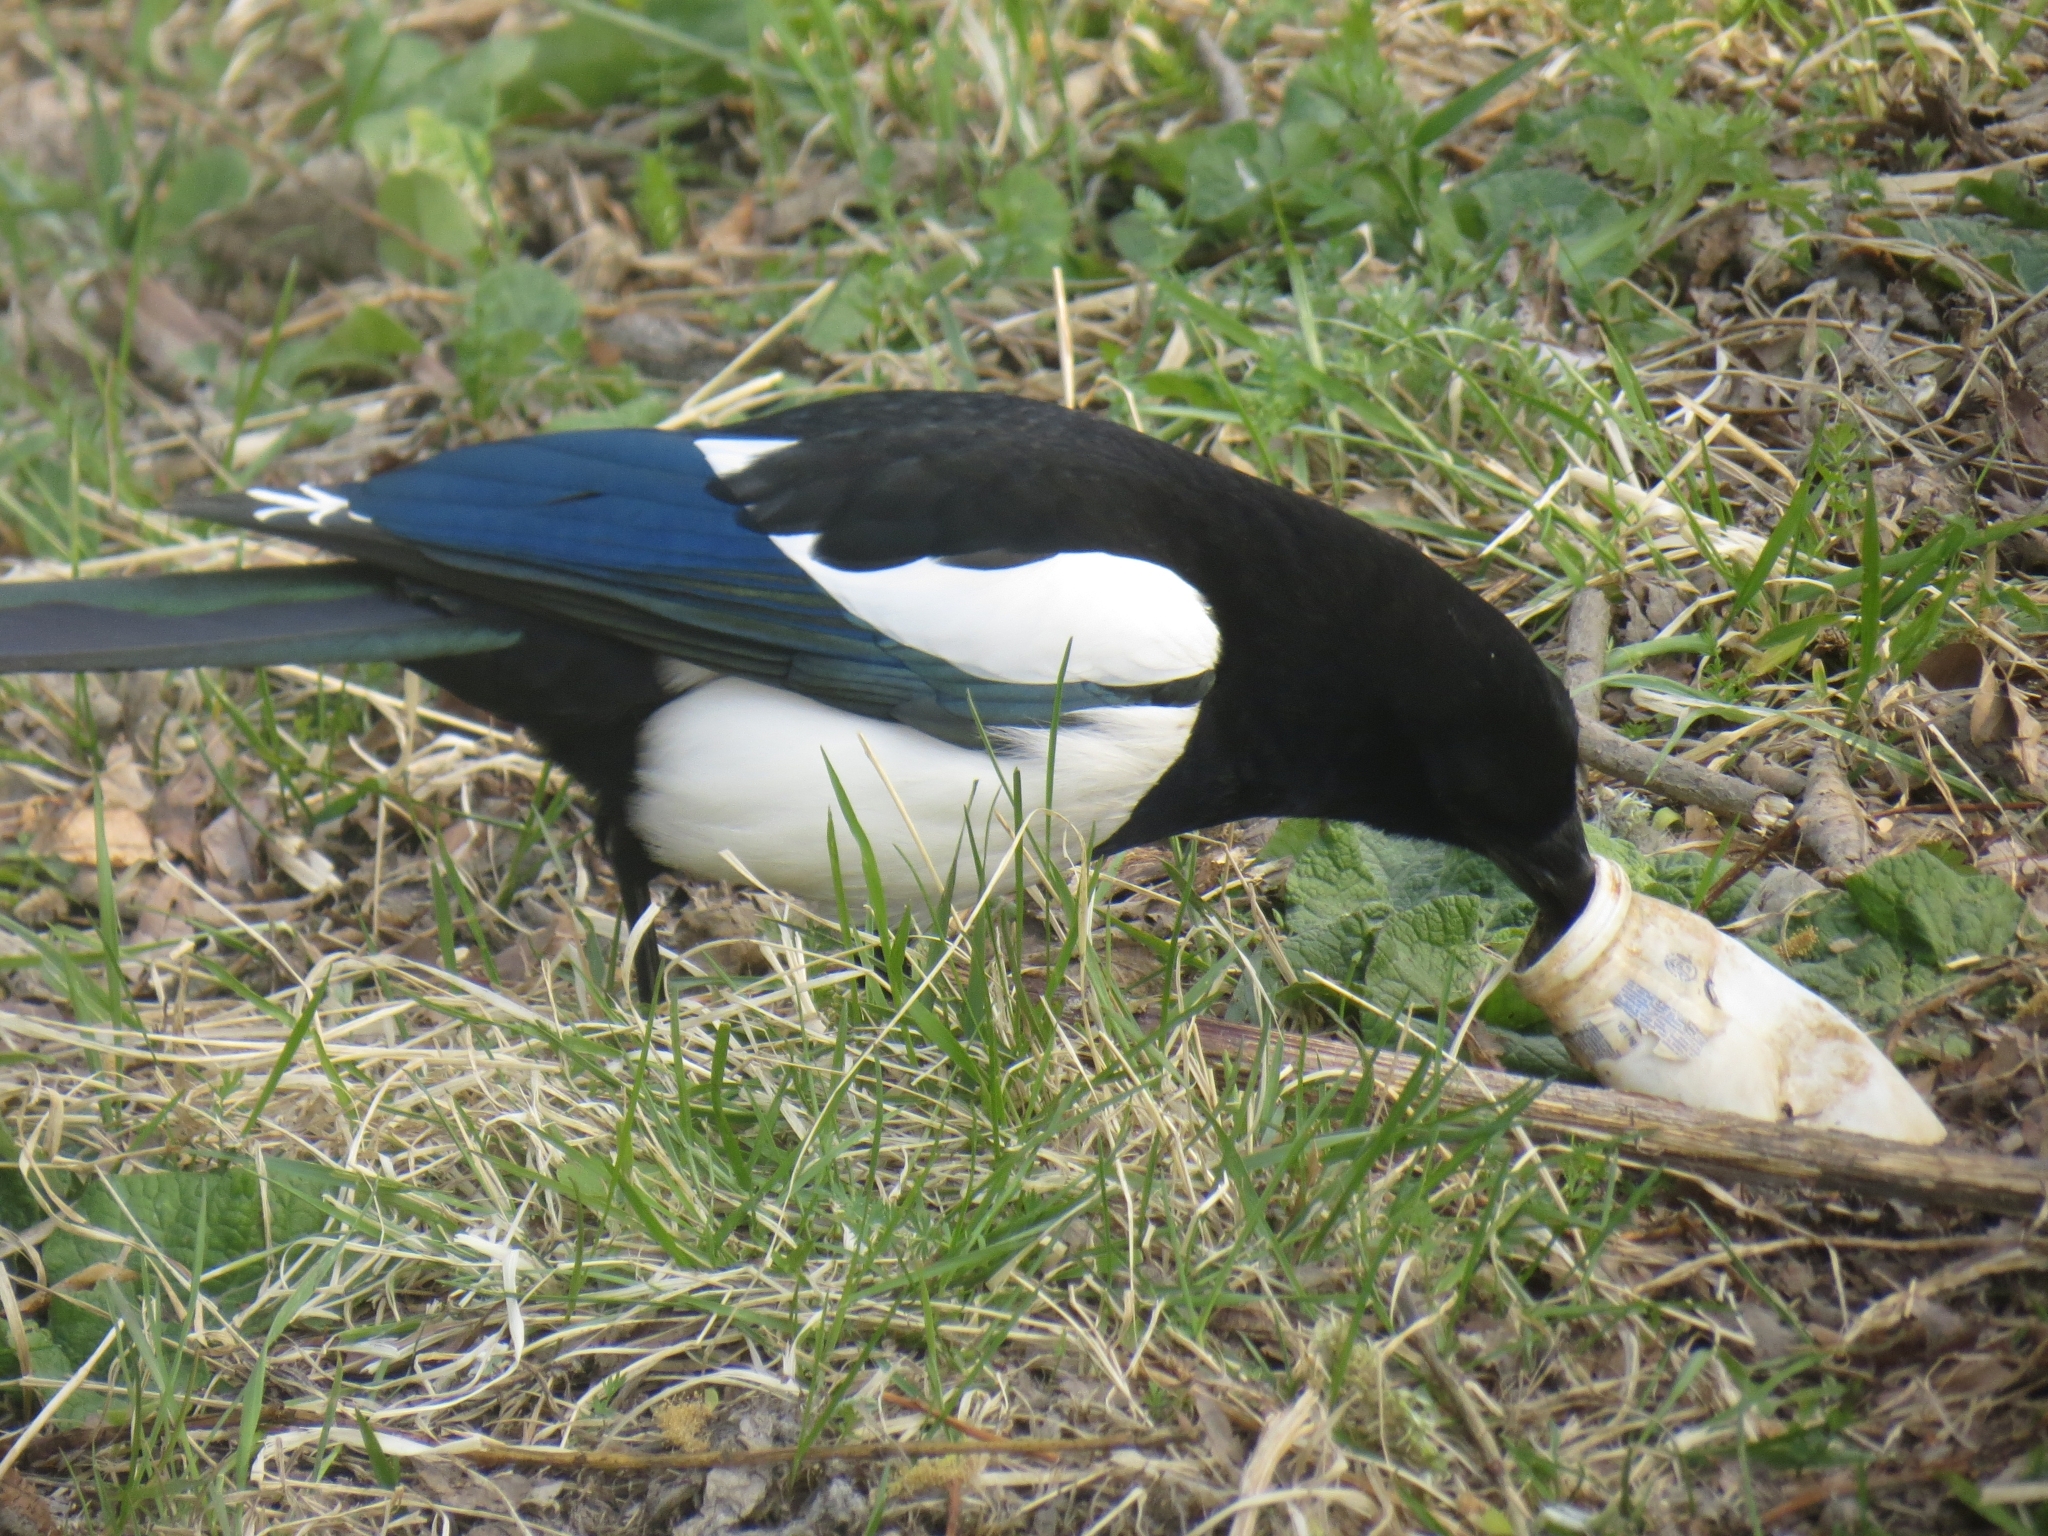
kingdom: Animalia
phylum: Chordata
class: Aves
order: Passeriformes
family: Corvidae
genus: Pica
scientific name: Pica pica
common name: Eurasian magpie
